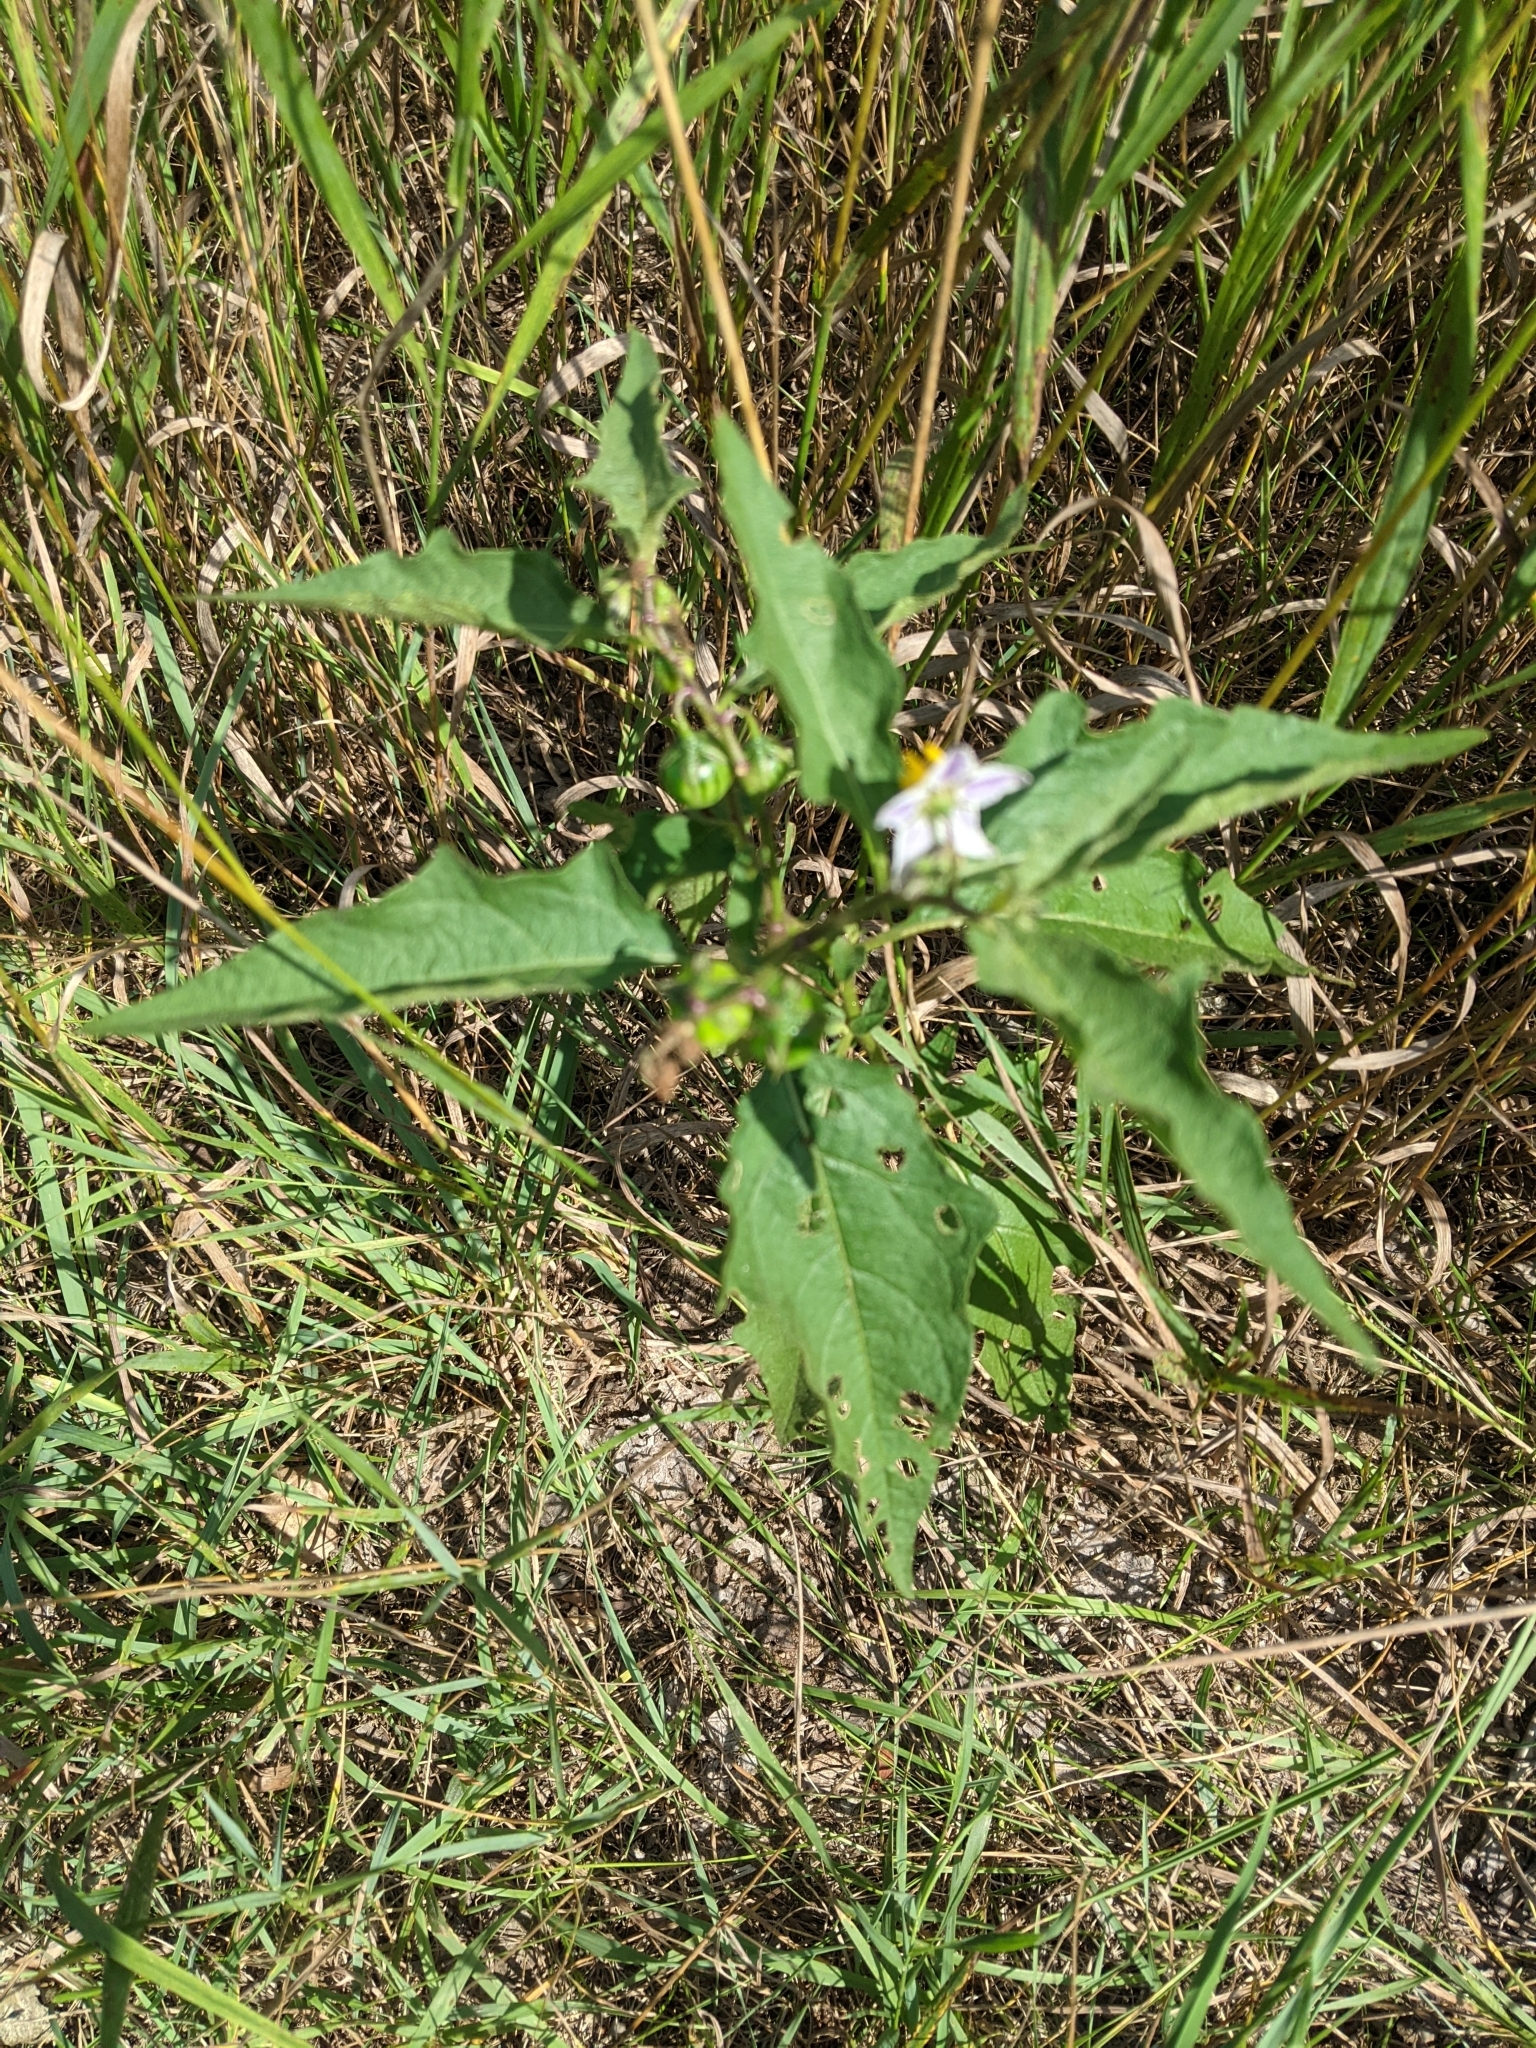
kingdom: Plantae
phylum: Tracheophyta
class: Magnoliopsida
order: Solanales
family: Solanaceae
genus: Solanum
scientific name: Solanum carolinense
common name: Horse-nettle
